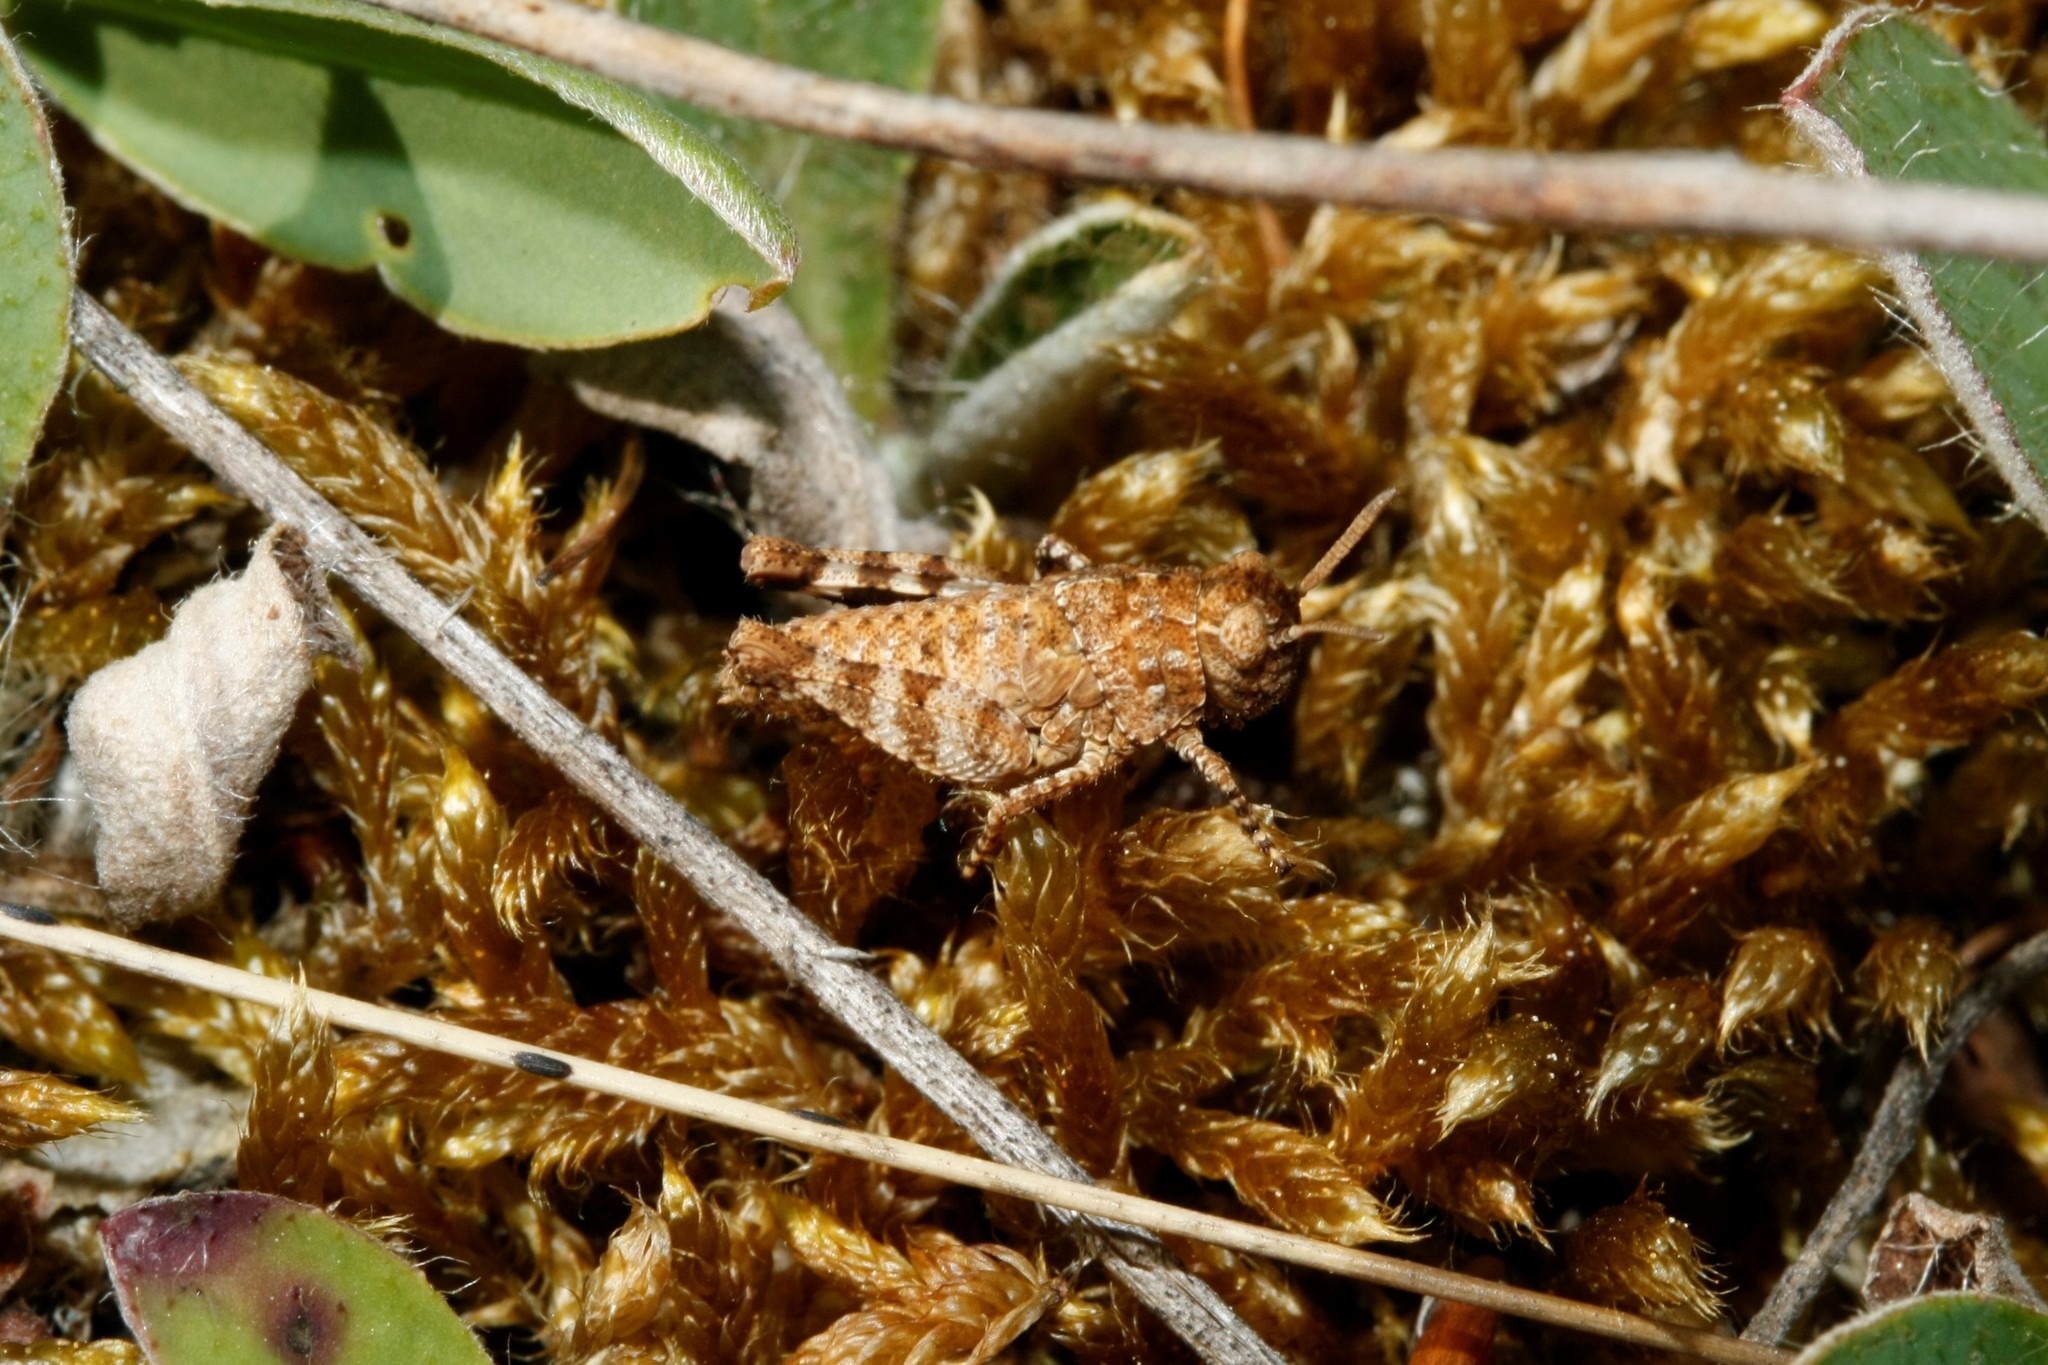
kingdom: Animalia
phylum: Arthropoda
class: Insecta
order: Orthoptera
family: Acrididae
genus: Oedipoda
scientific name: Oedipoda caerulescens
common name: Blue-winged grasshopper
